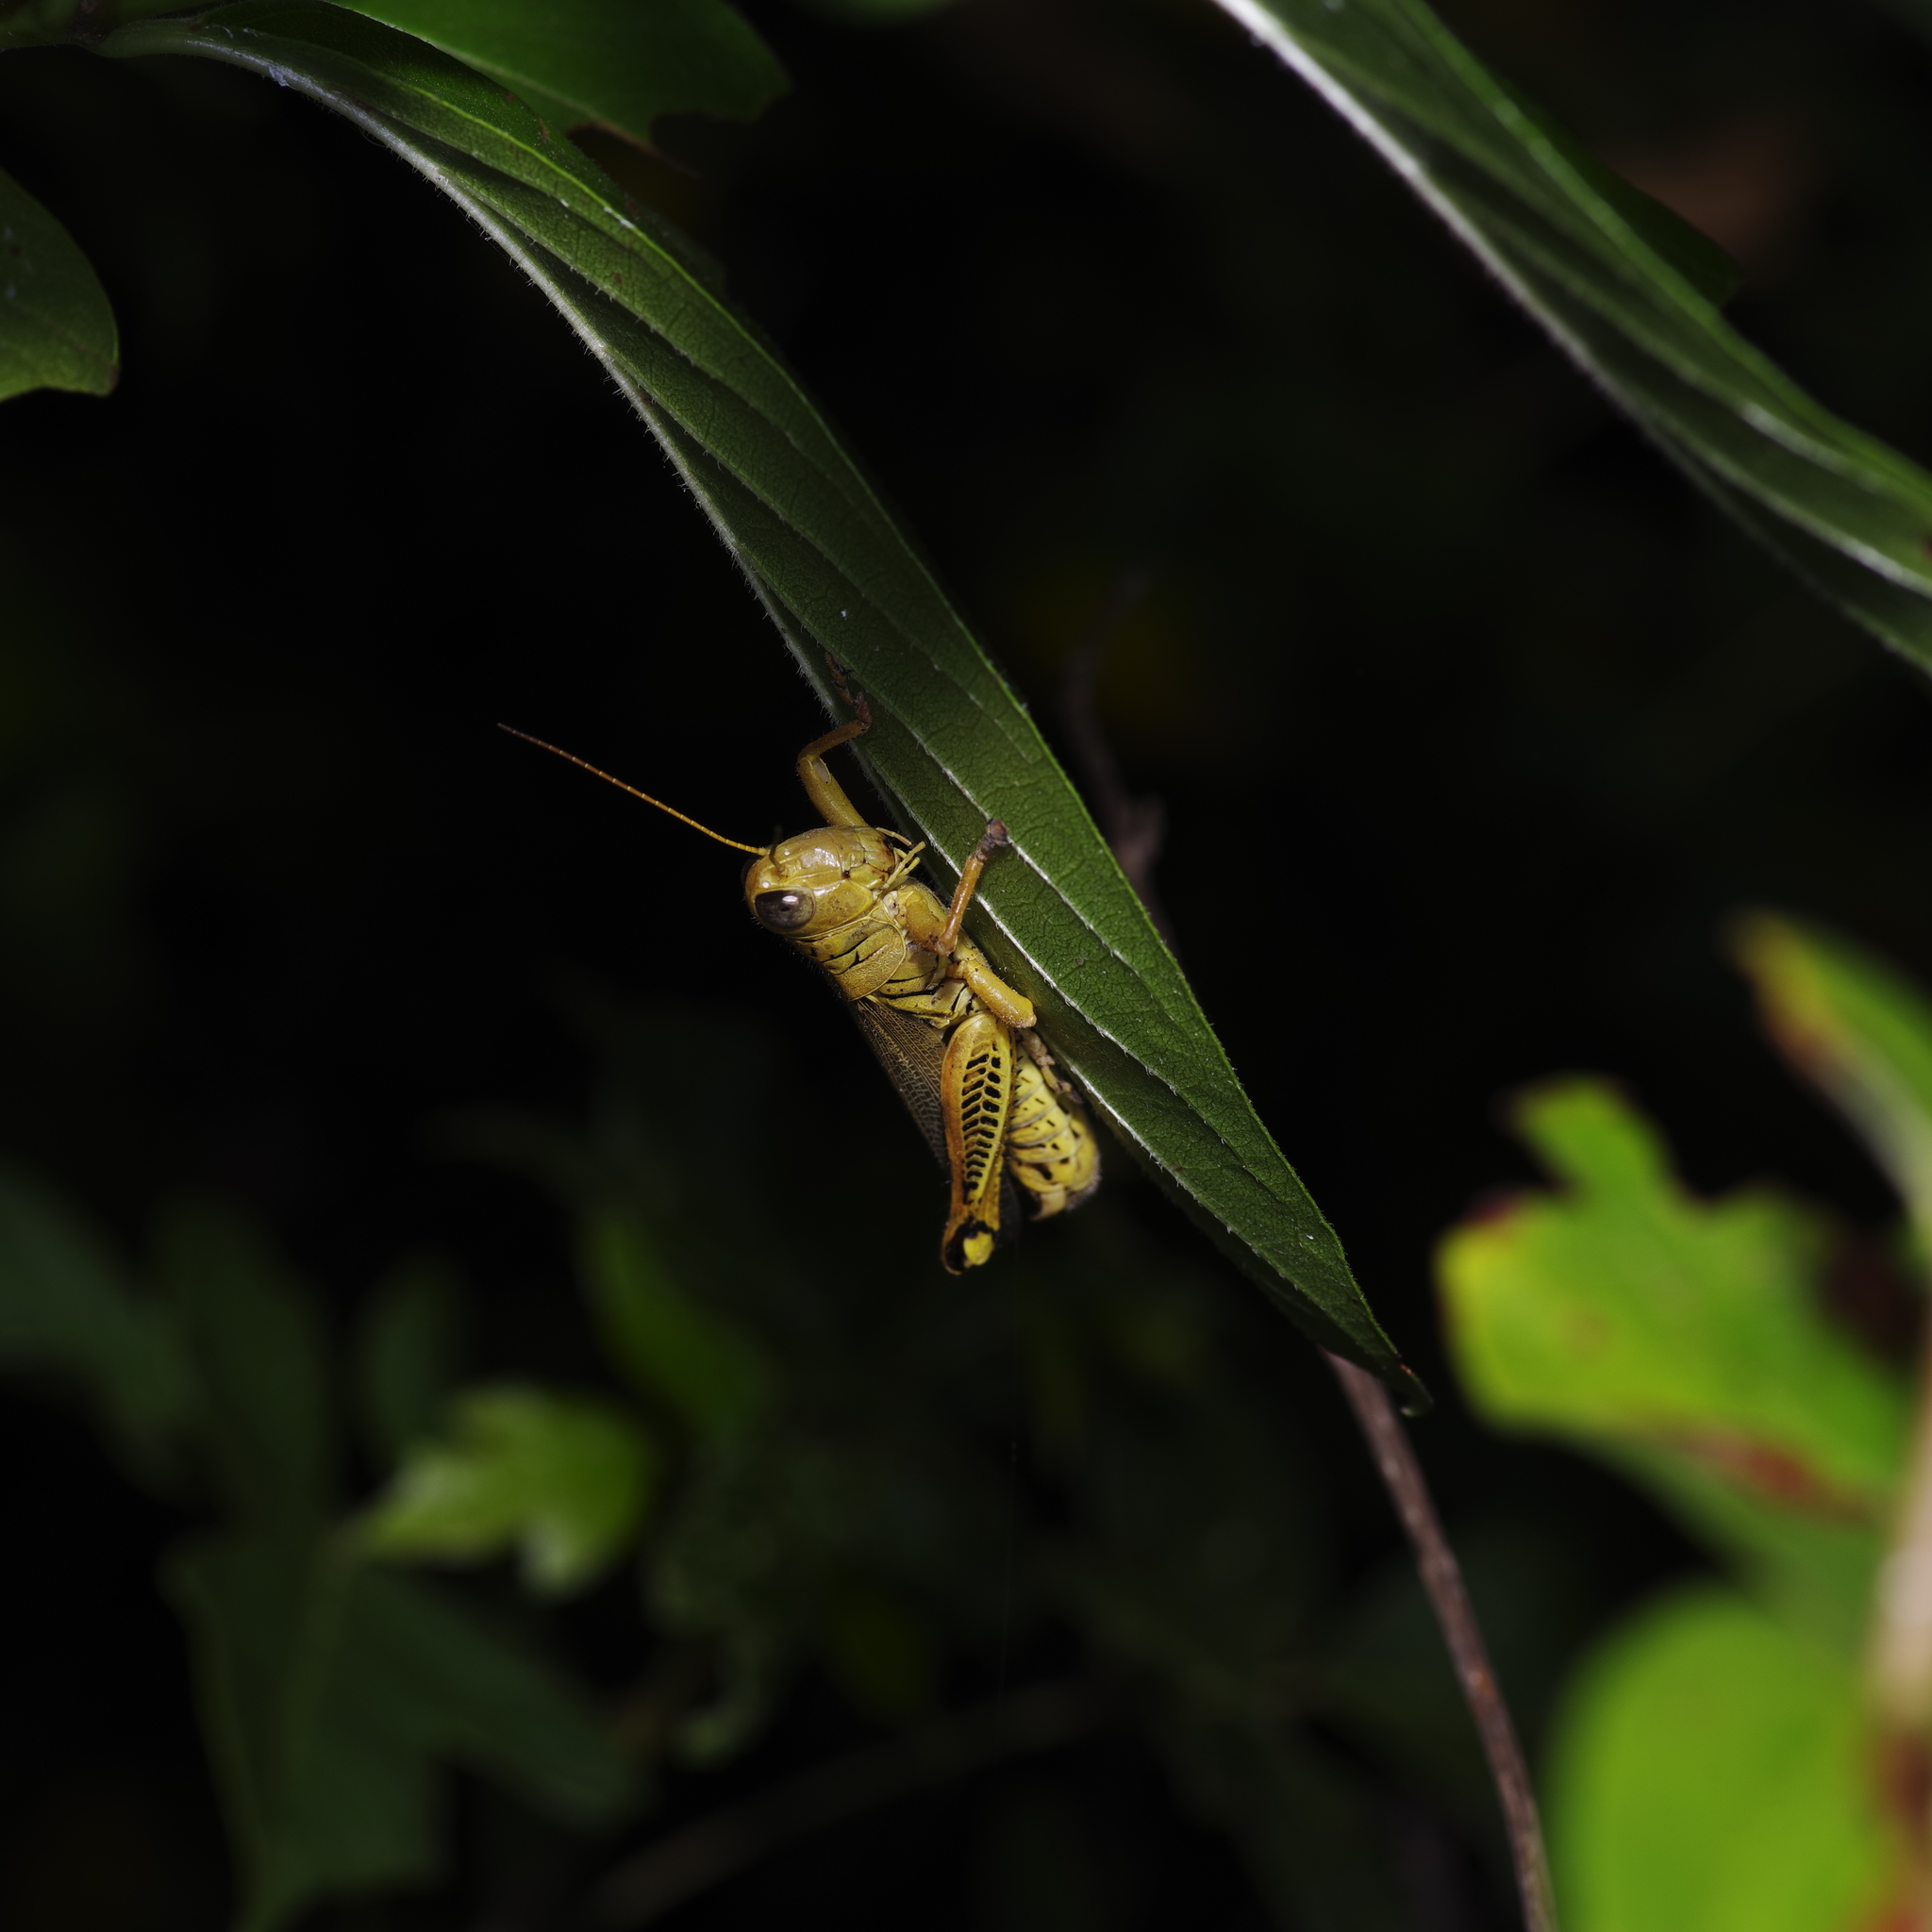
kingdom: Animalia
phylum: Arthropoda
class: Insecta
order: Orthoptera
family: Acrididae
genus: Melanoplus
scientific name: Melanoplus differentialis
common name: Differential grasshopper
